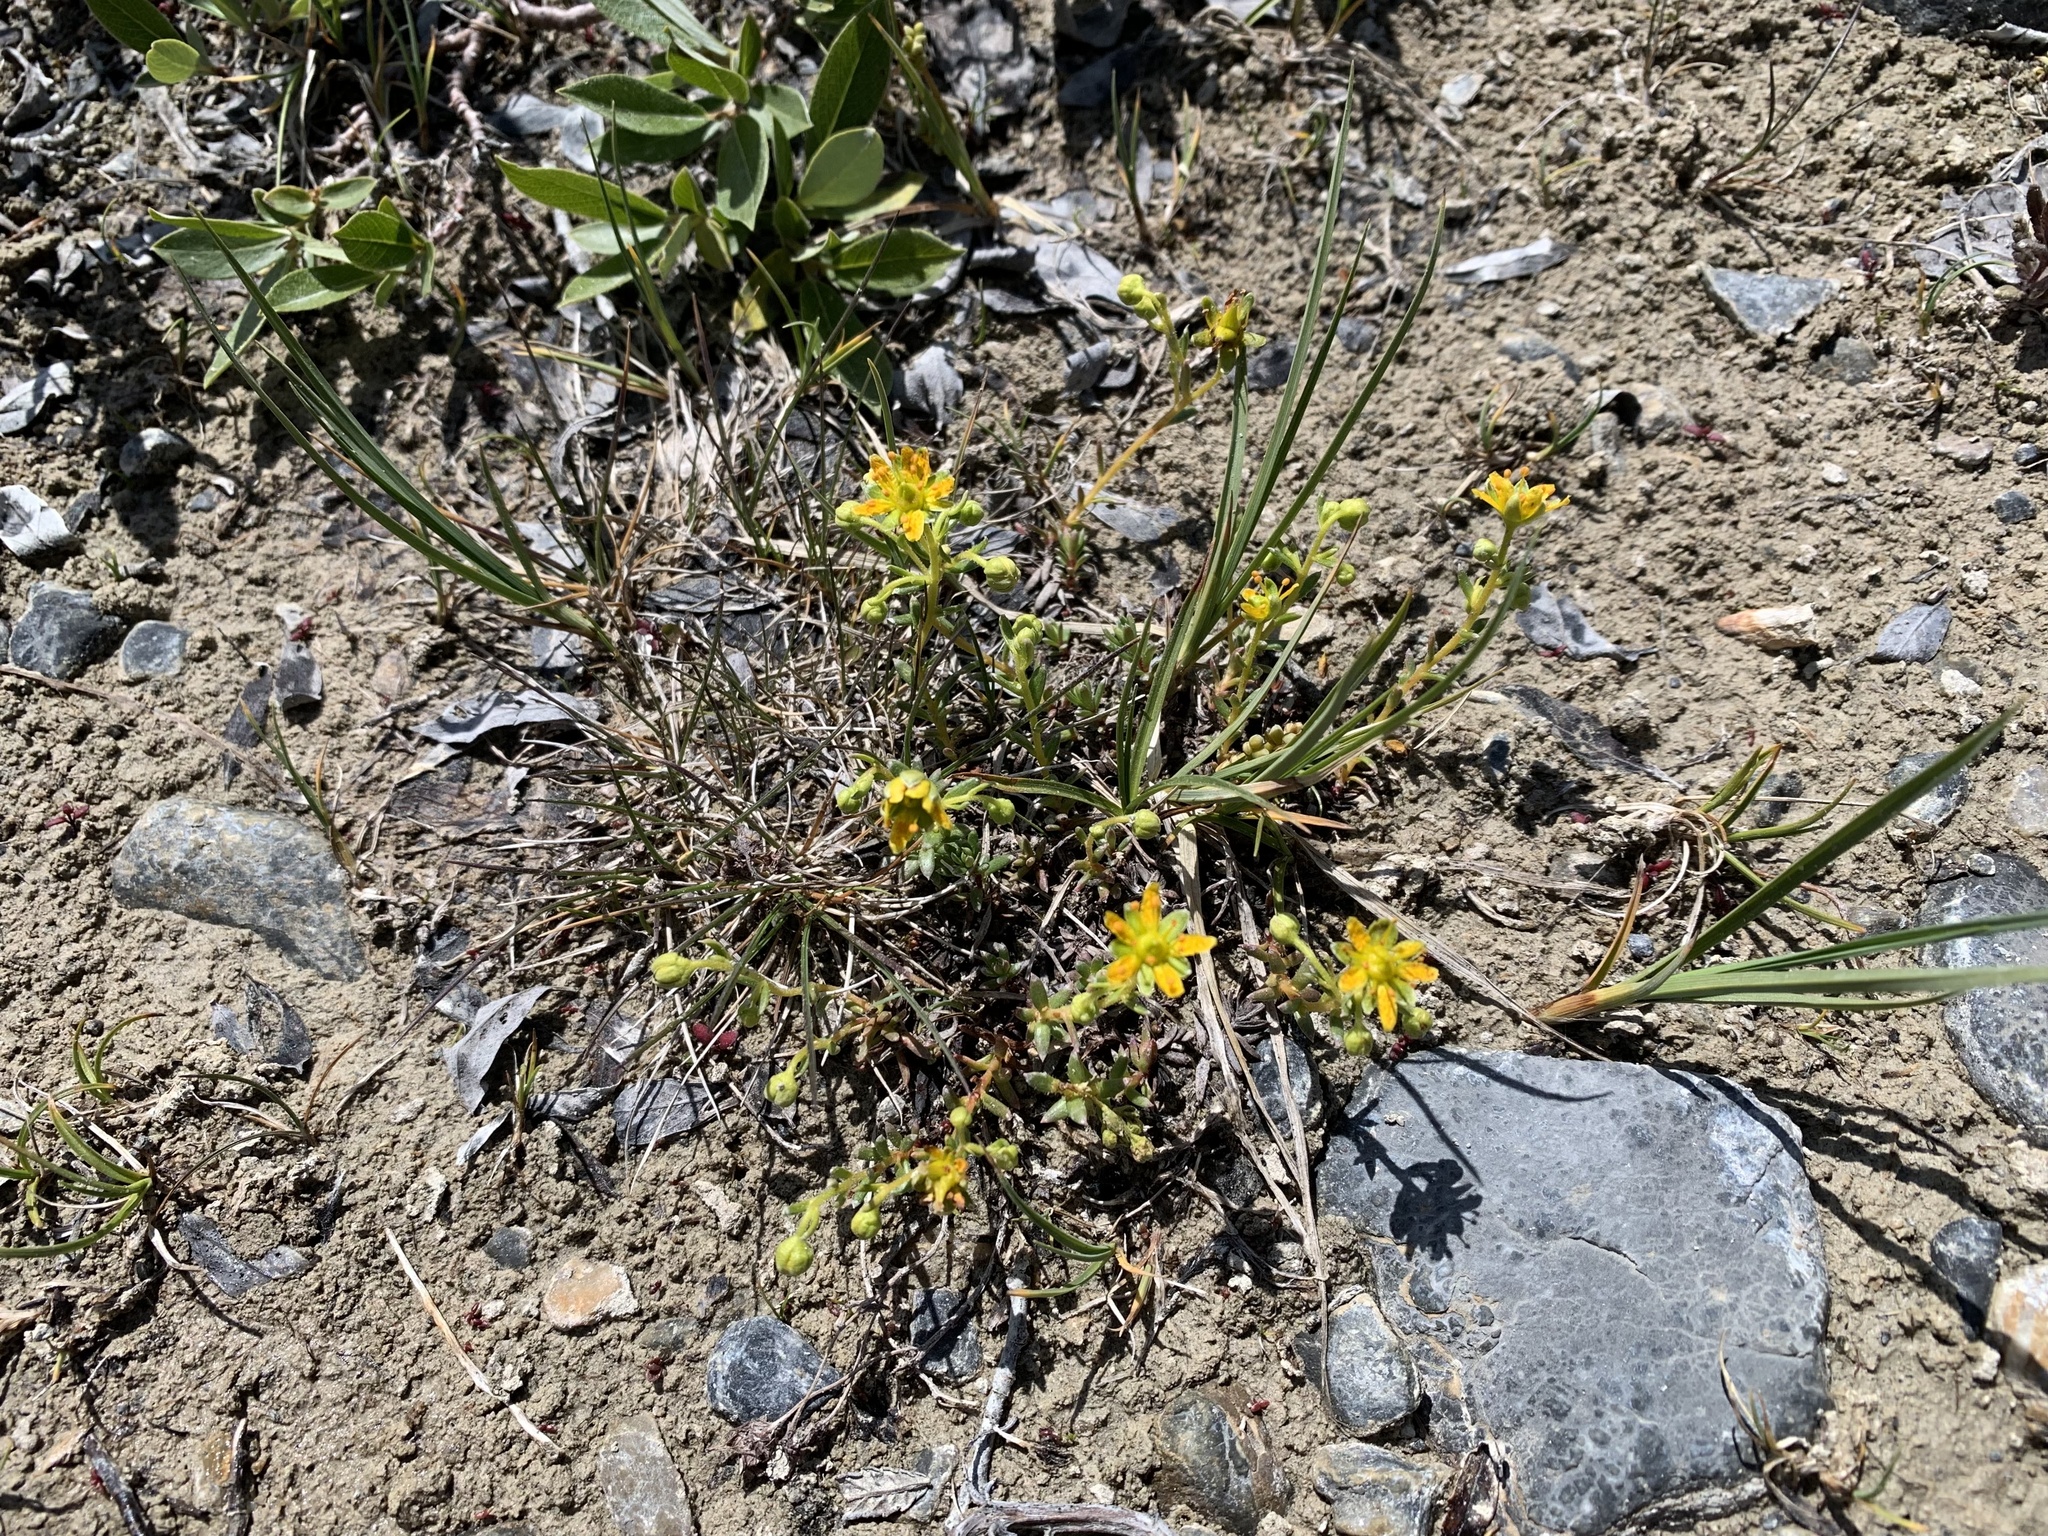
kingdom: Plantae
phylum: Tracheophyta
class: Magnoliopsida
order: Saxifragales
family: Saxifragaceae
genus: Saxifraga
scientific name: Saxifraga aizoides
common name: Yellow mountain saxifrage
